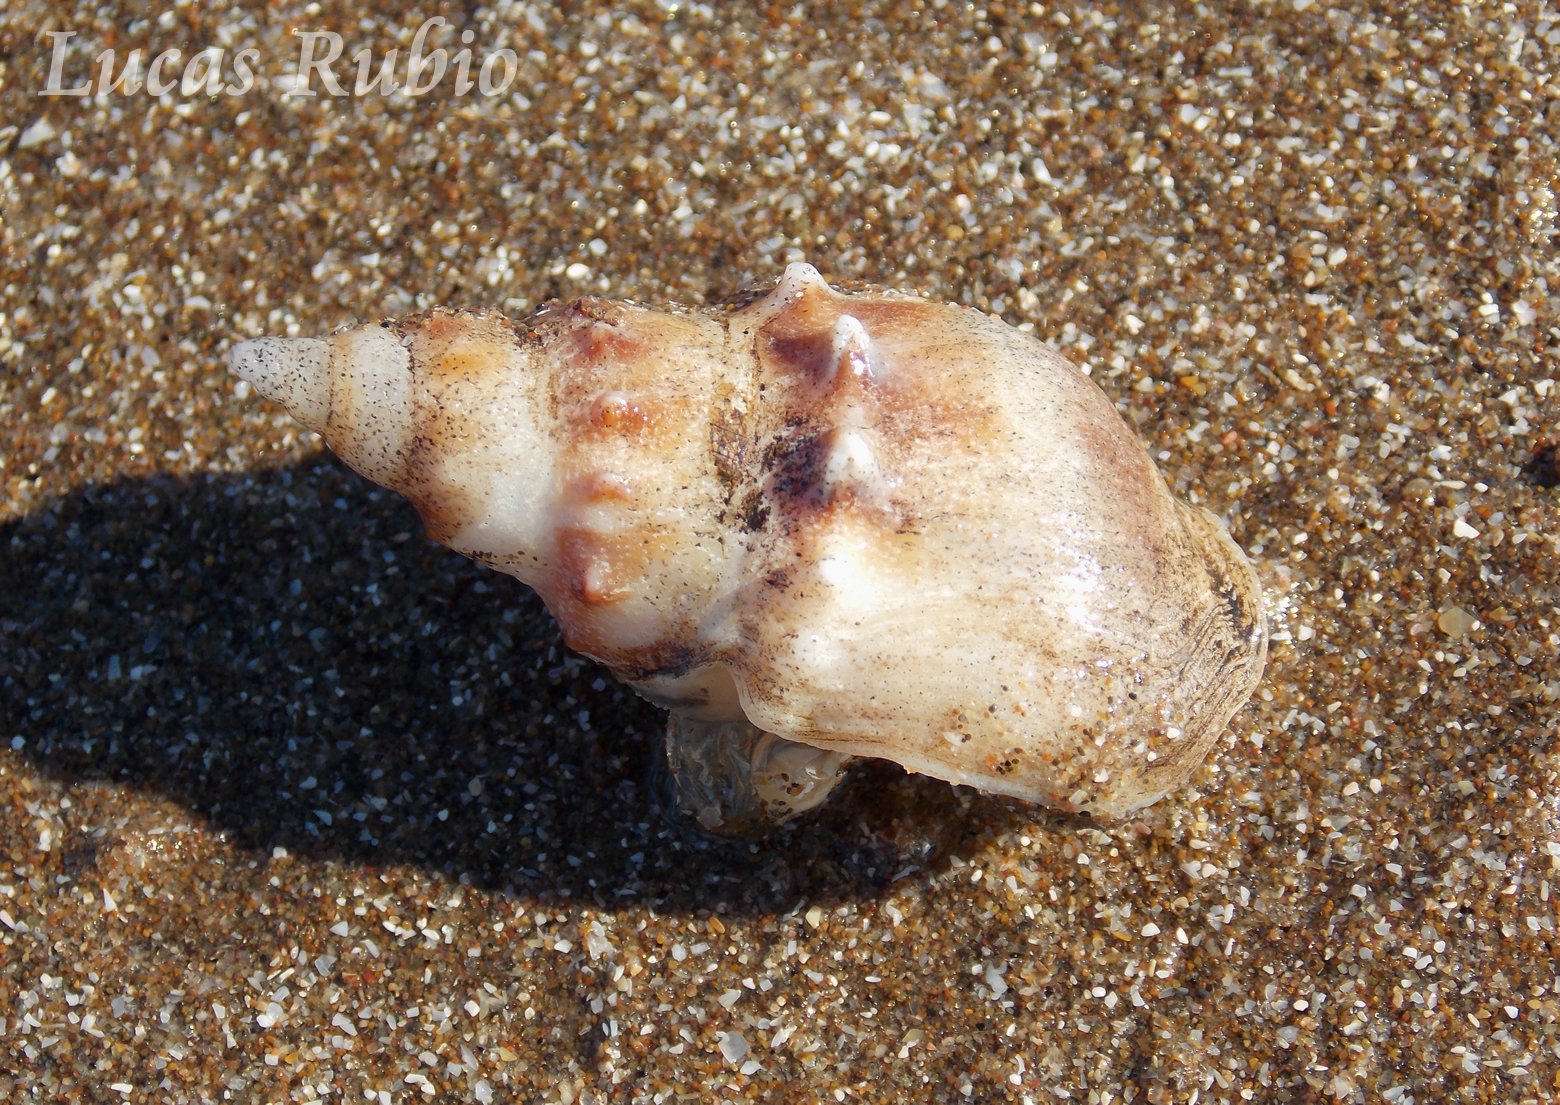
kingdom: Animalia
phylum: Mollusca
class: Gastropoda
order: Neogastropoda
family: Buccinanopsidae
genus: Buccinanops
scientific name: Buccinanops monilifer
